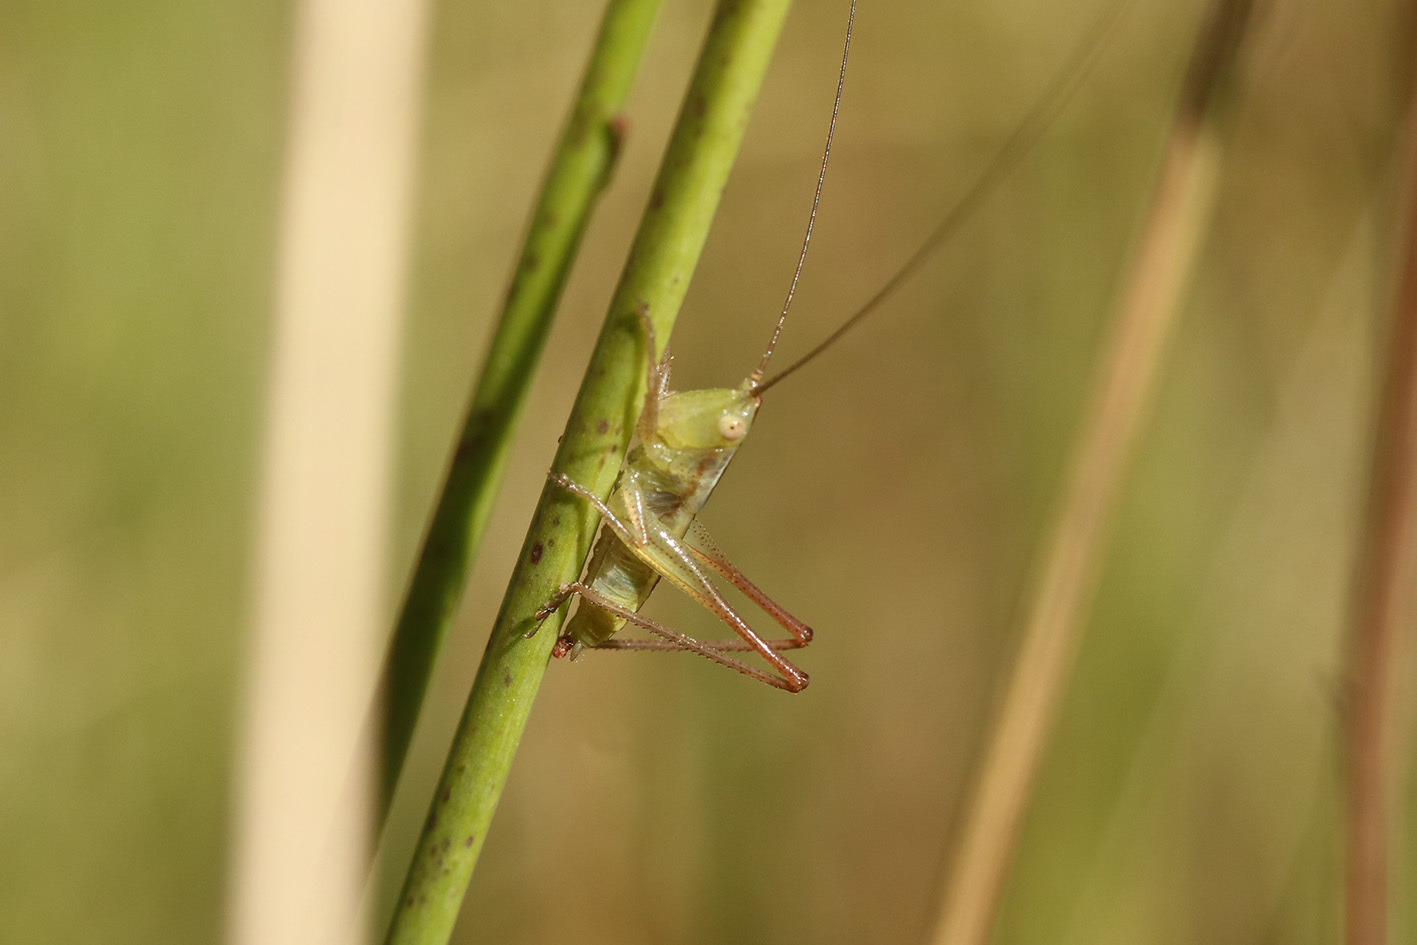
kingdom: Animalia
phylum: Arthropoda
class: Insecta
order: Orthoptera
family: Tettigoniidae
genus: Conocephalus
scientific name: Conocephalus longipes
